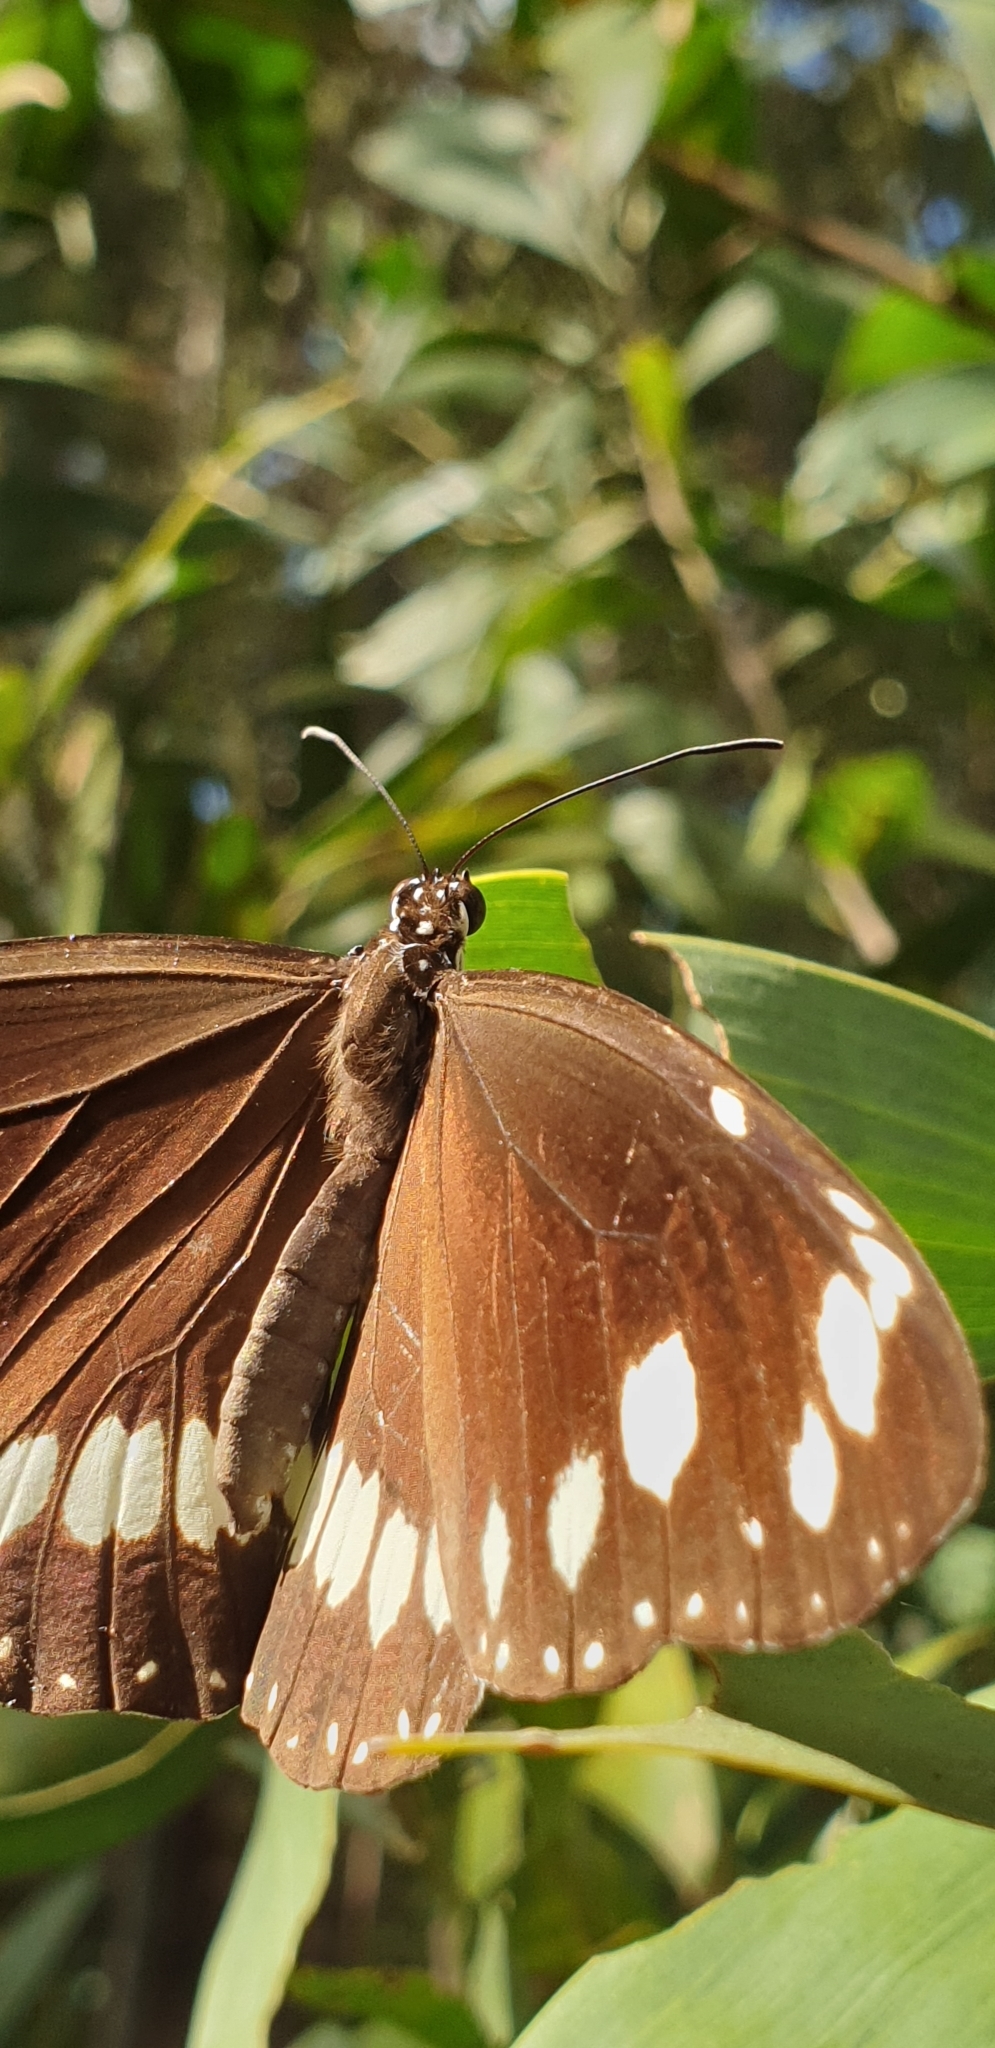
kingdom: Animalia
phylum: Arthropoda
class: Insecta
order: Lepidoptera
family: Nymphalidae
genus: Euploea
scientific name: Euploea core
